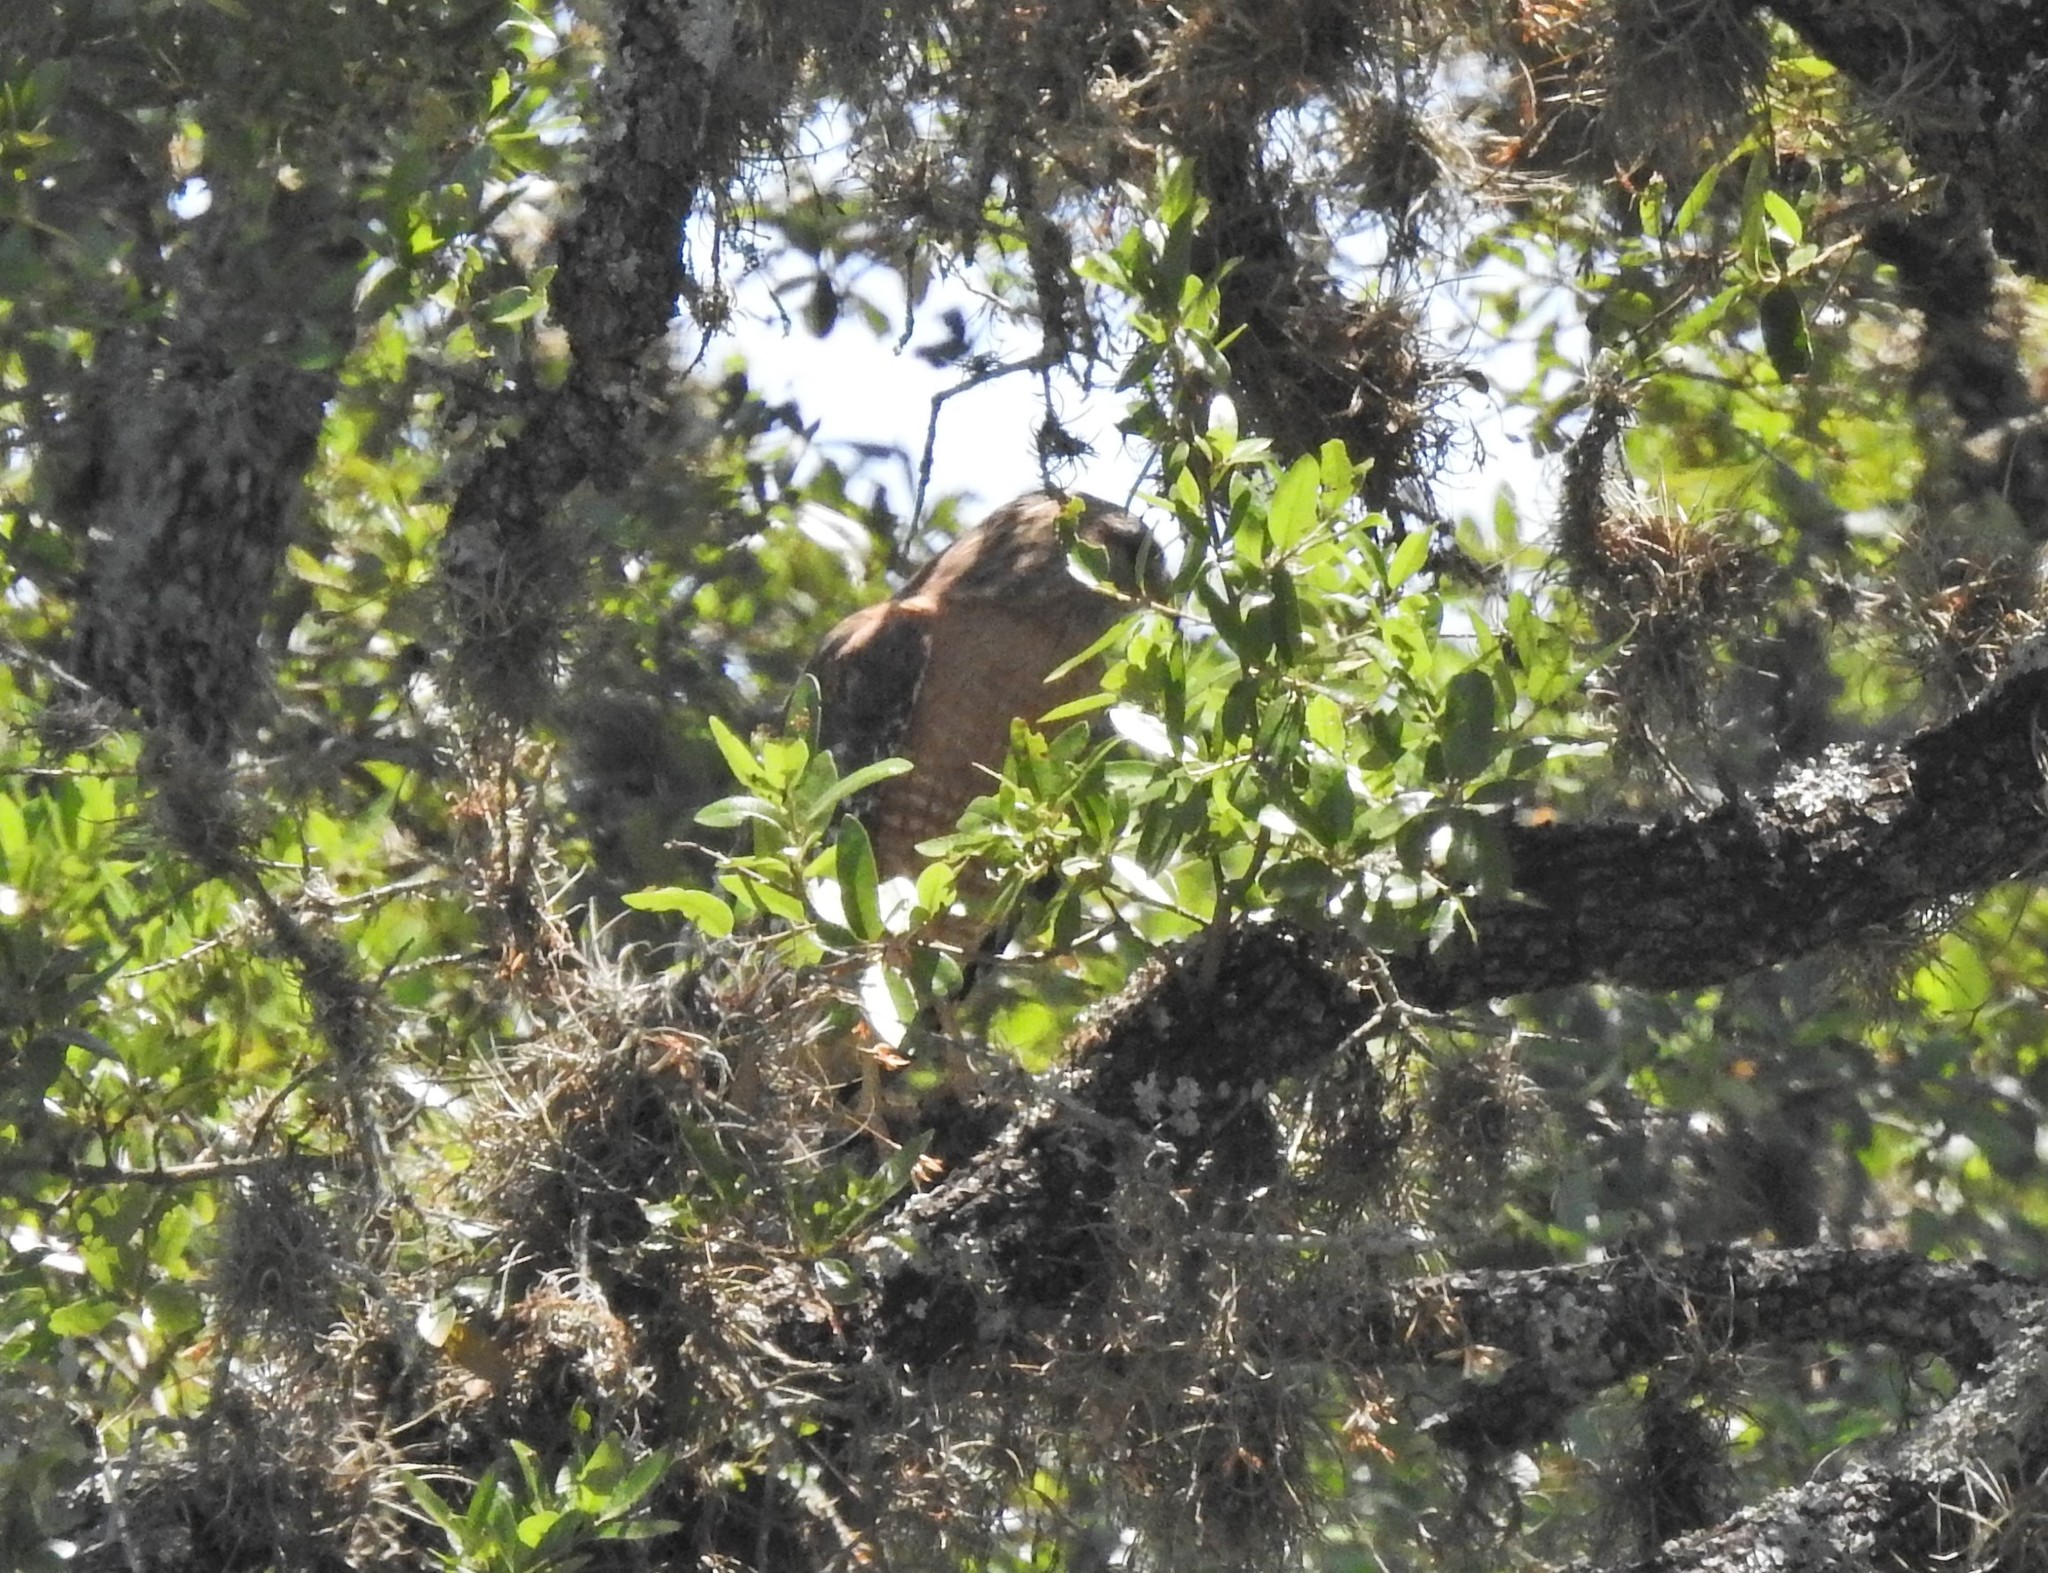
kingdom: Animalia
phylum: Chordata
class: Aves
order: Accipitriformes
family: Accipitridae
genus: Buteo
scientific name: Buteo lineatus
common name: Red-shouldered hawk
